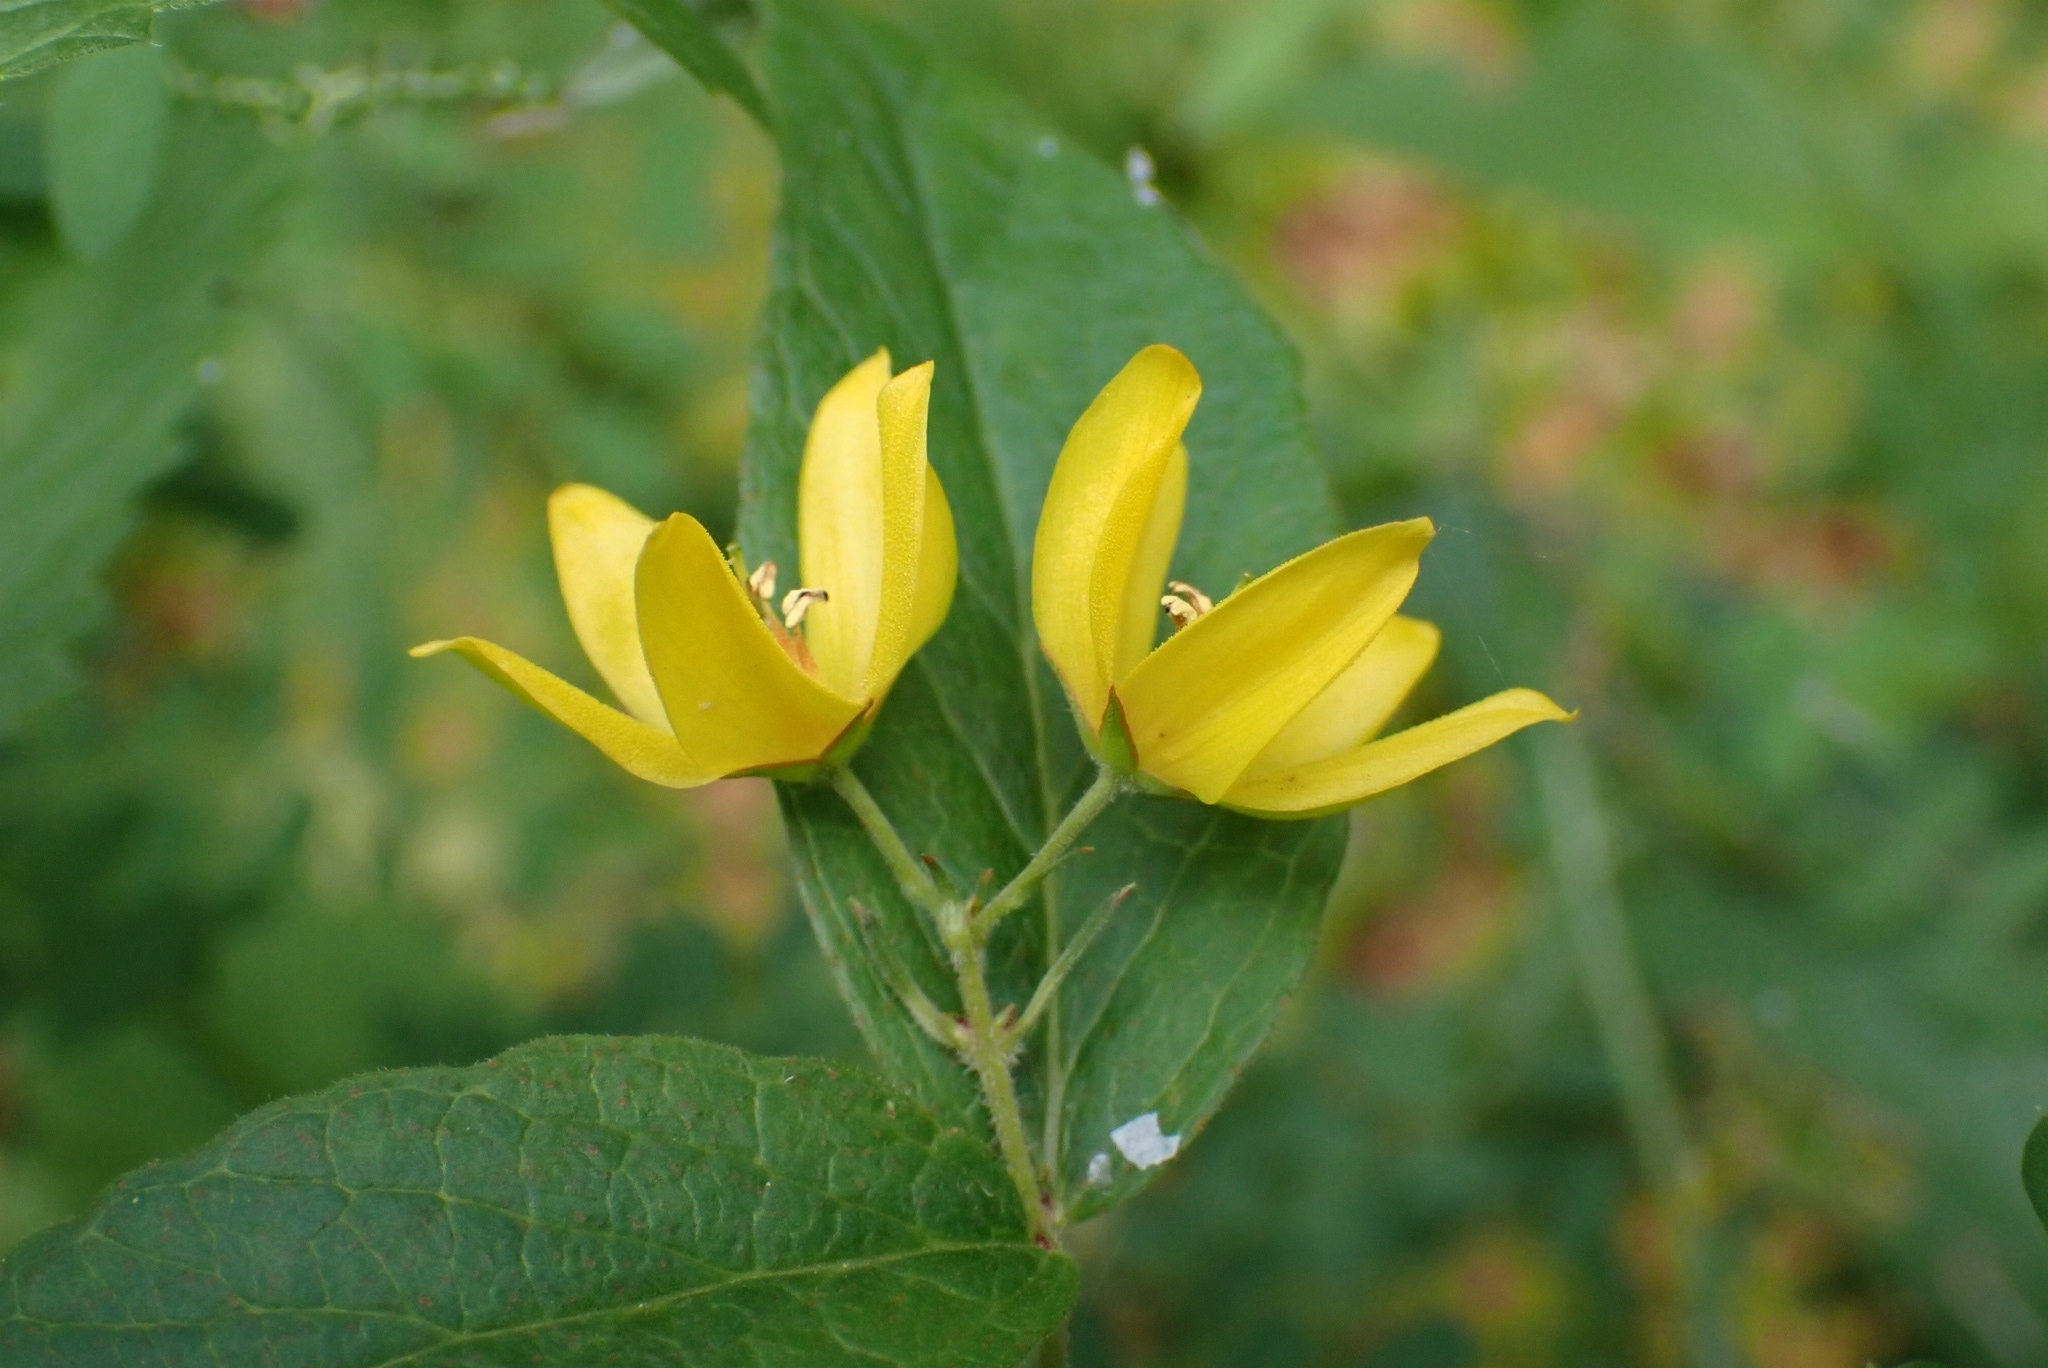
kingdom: Plantae
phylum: Tracheophyta
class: Magnoliopsida
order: Ericales
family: Primulaceae
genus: Lysimachia
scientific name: Lysimachia vulgaris
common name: Yellow loosestrife
